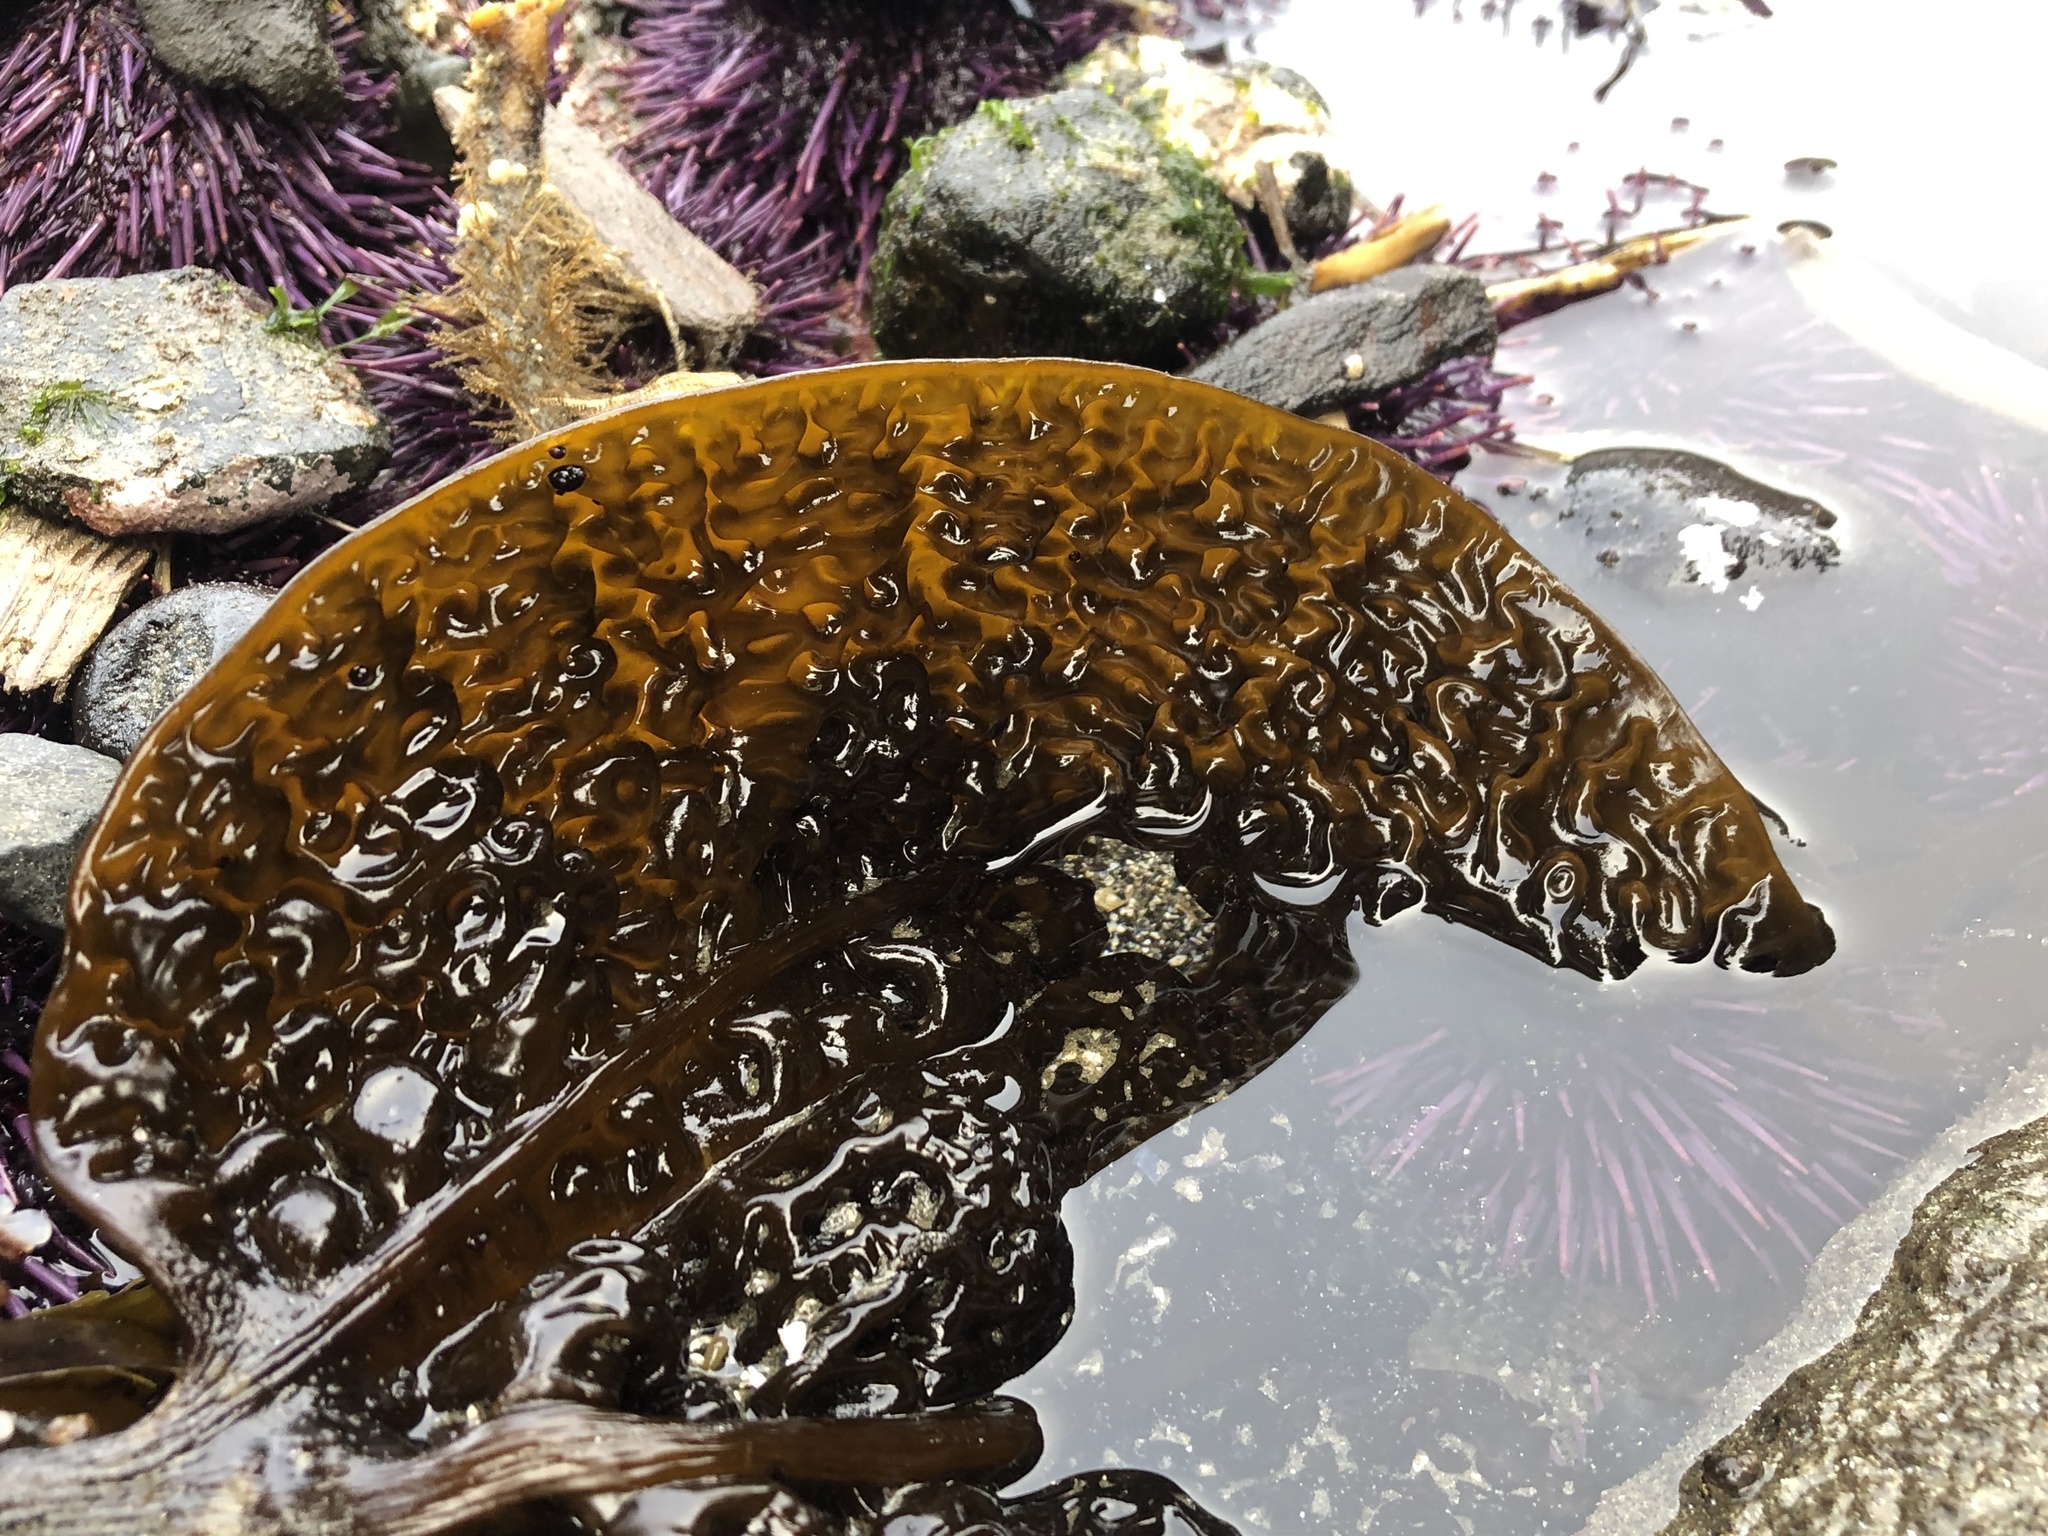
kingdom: Chromista
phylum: Ochrophyta
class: Phaeophyceae
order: Laminariales
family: Costariaceae
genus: Costaria
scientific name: Costaria costata
